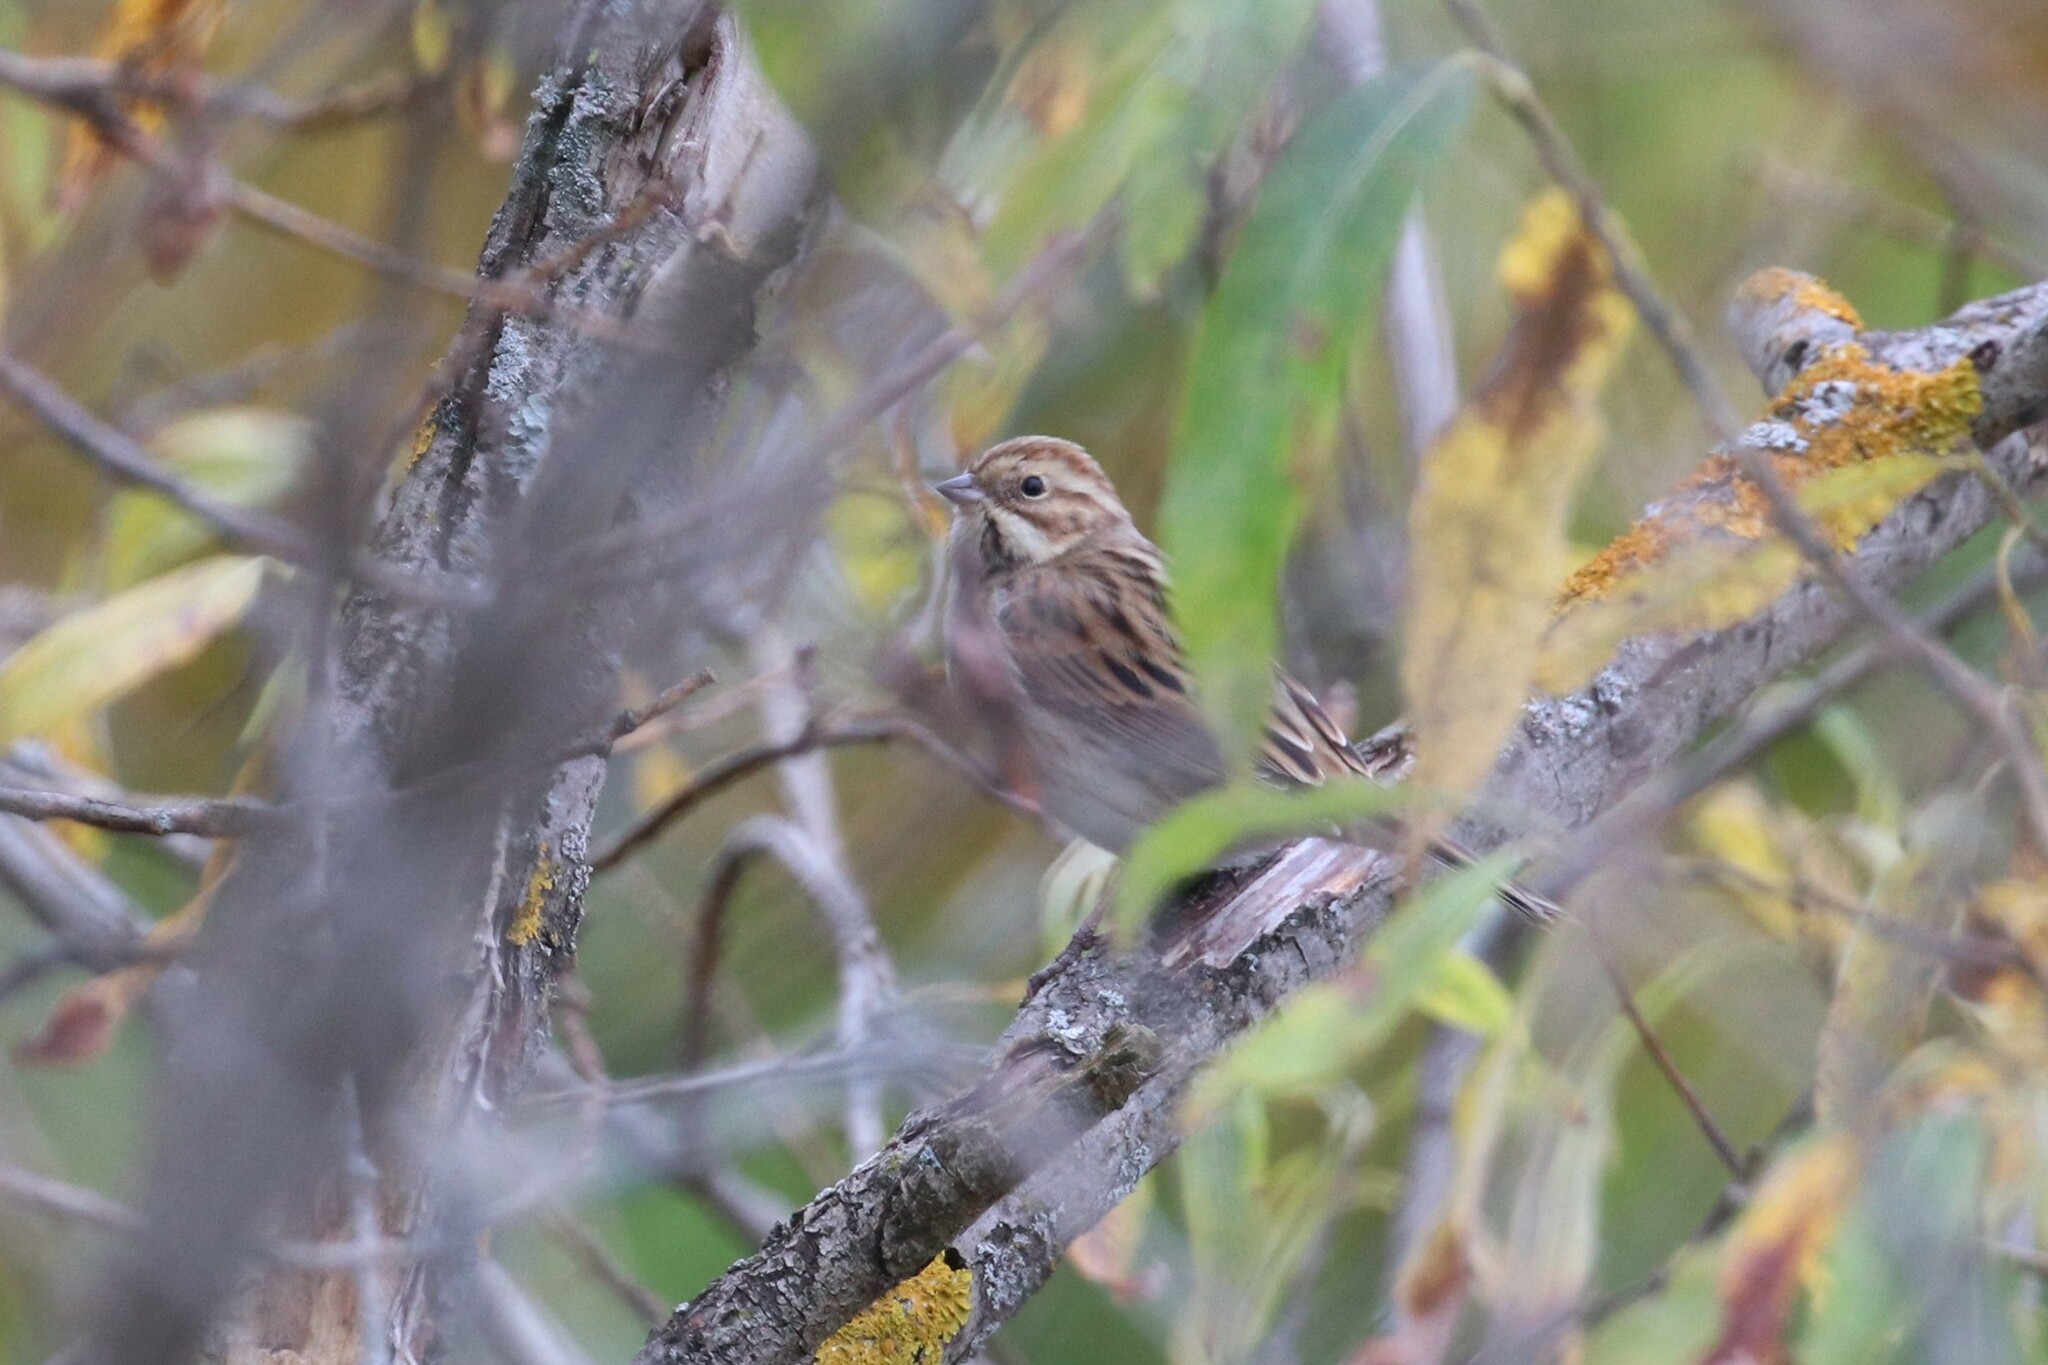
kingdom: Animalia
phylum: Chordata
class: Aves
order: Passeriformes
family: Emberizidae
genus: Emberiza
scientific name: Emberiza schoeniclus
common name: Reed bunting
